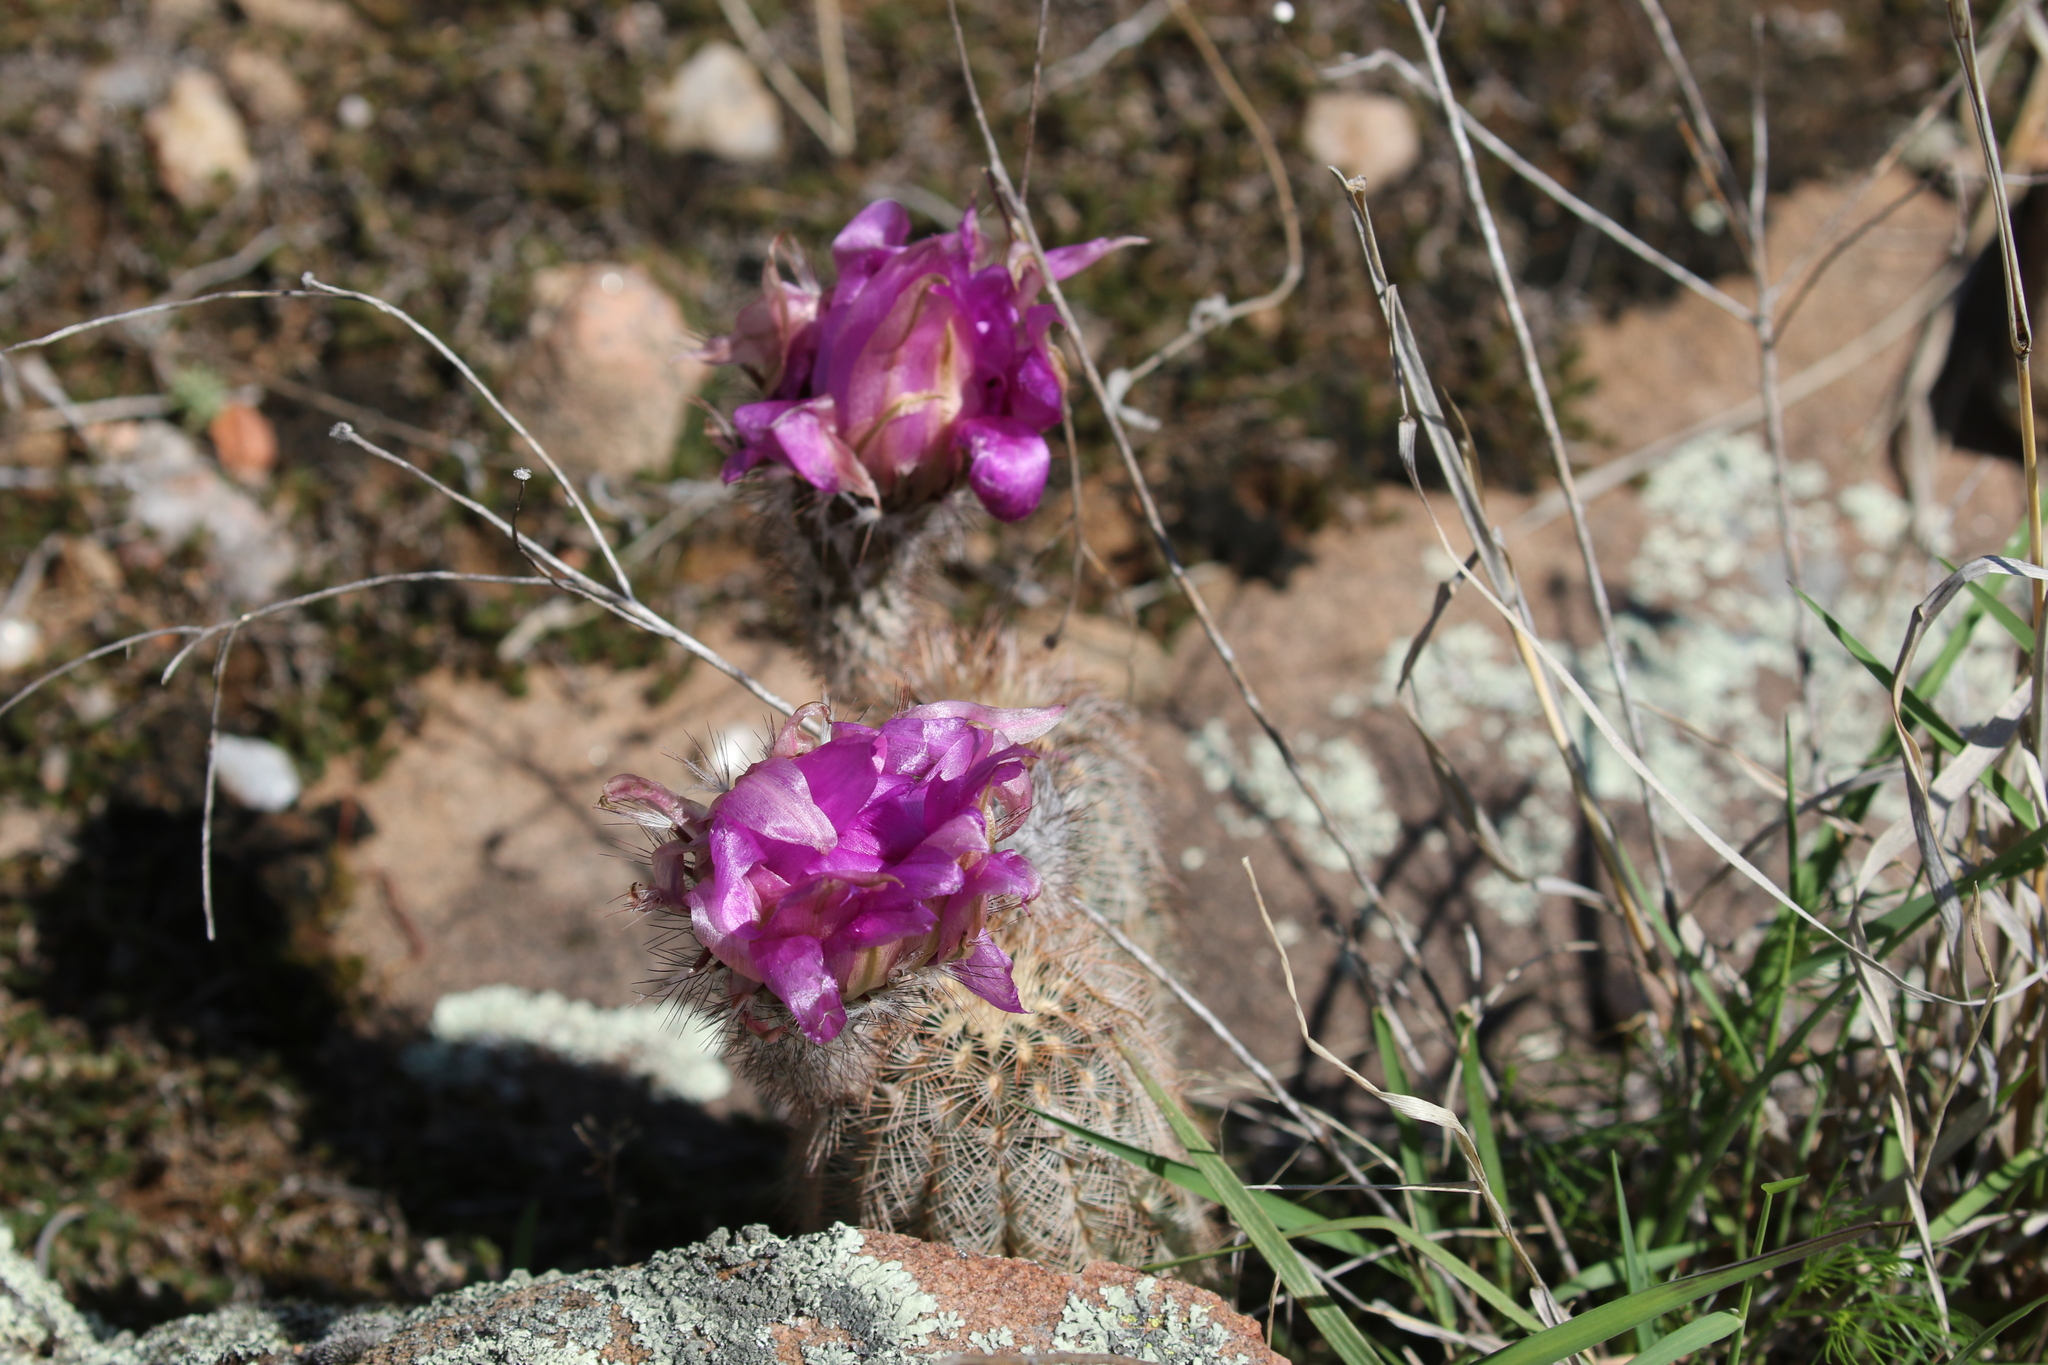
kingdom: Plantae
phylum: Tracheophyta
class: Magnoliopsida
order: Caryophyllales
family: Cactaceae
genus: Echinocereus
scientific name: Echinocereus reichenbachii
